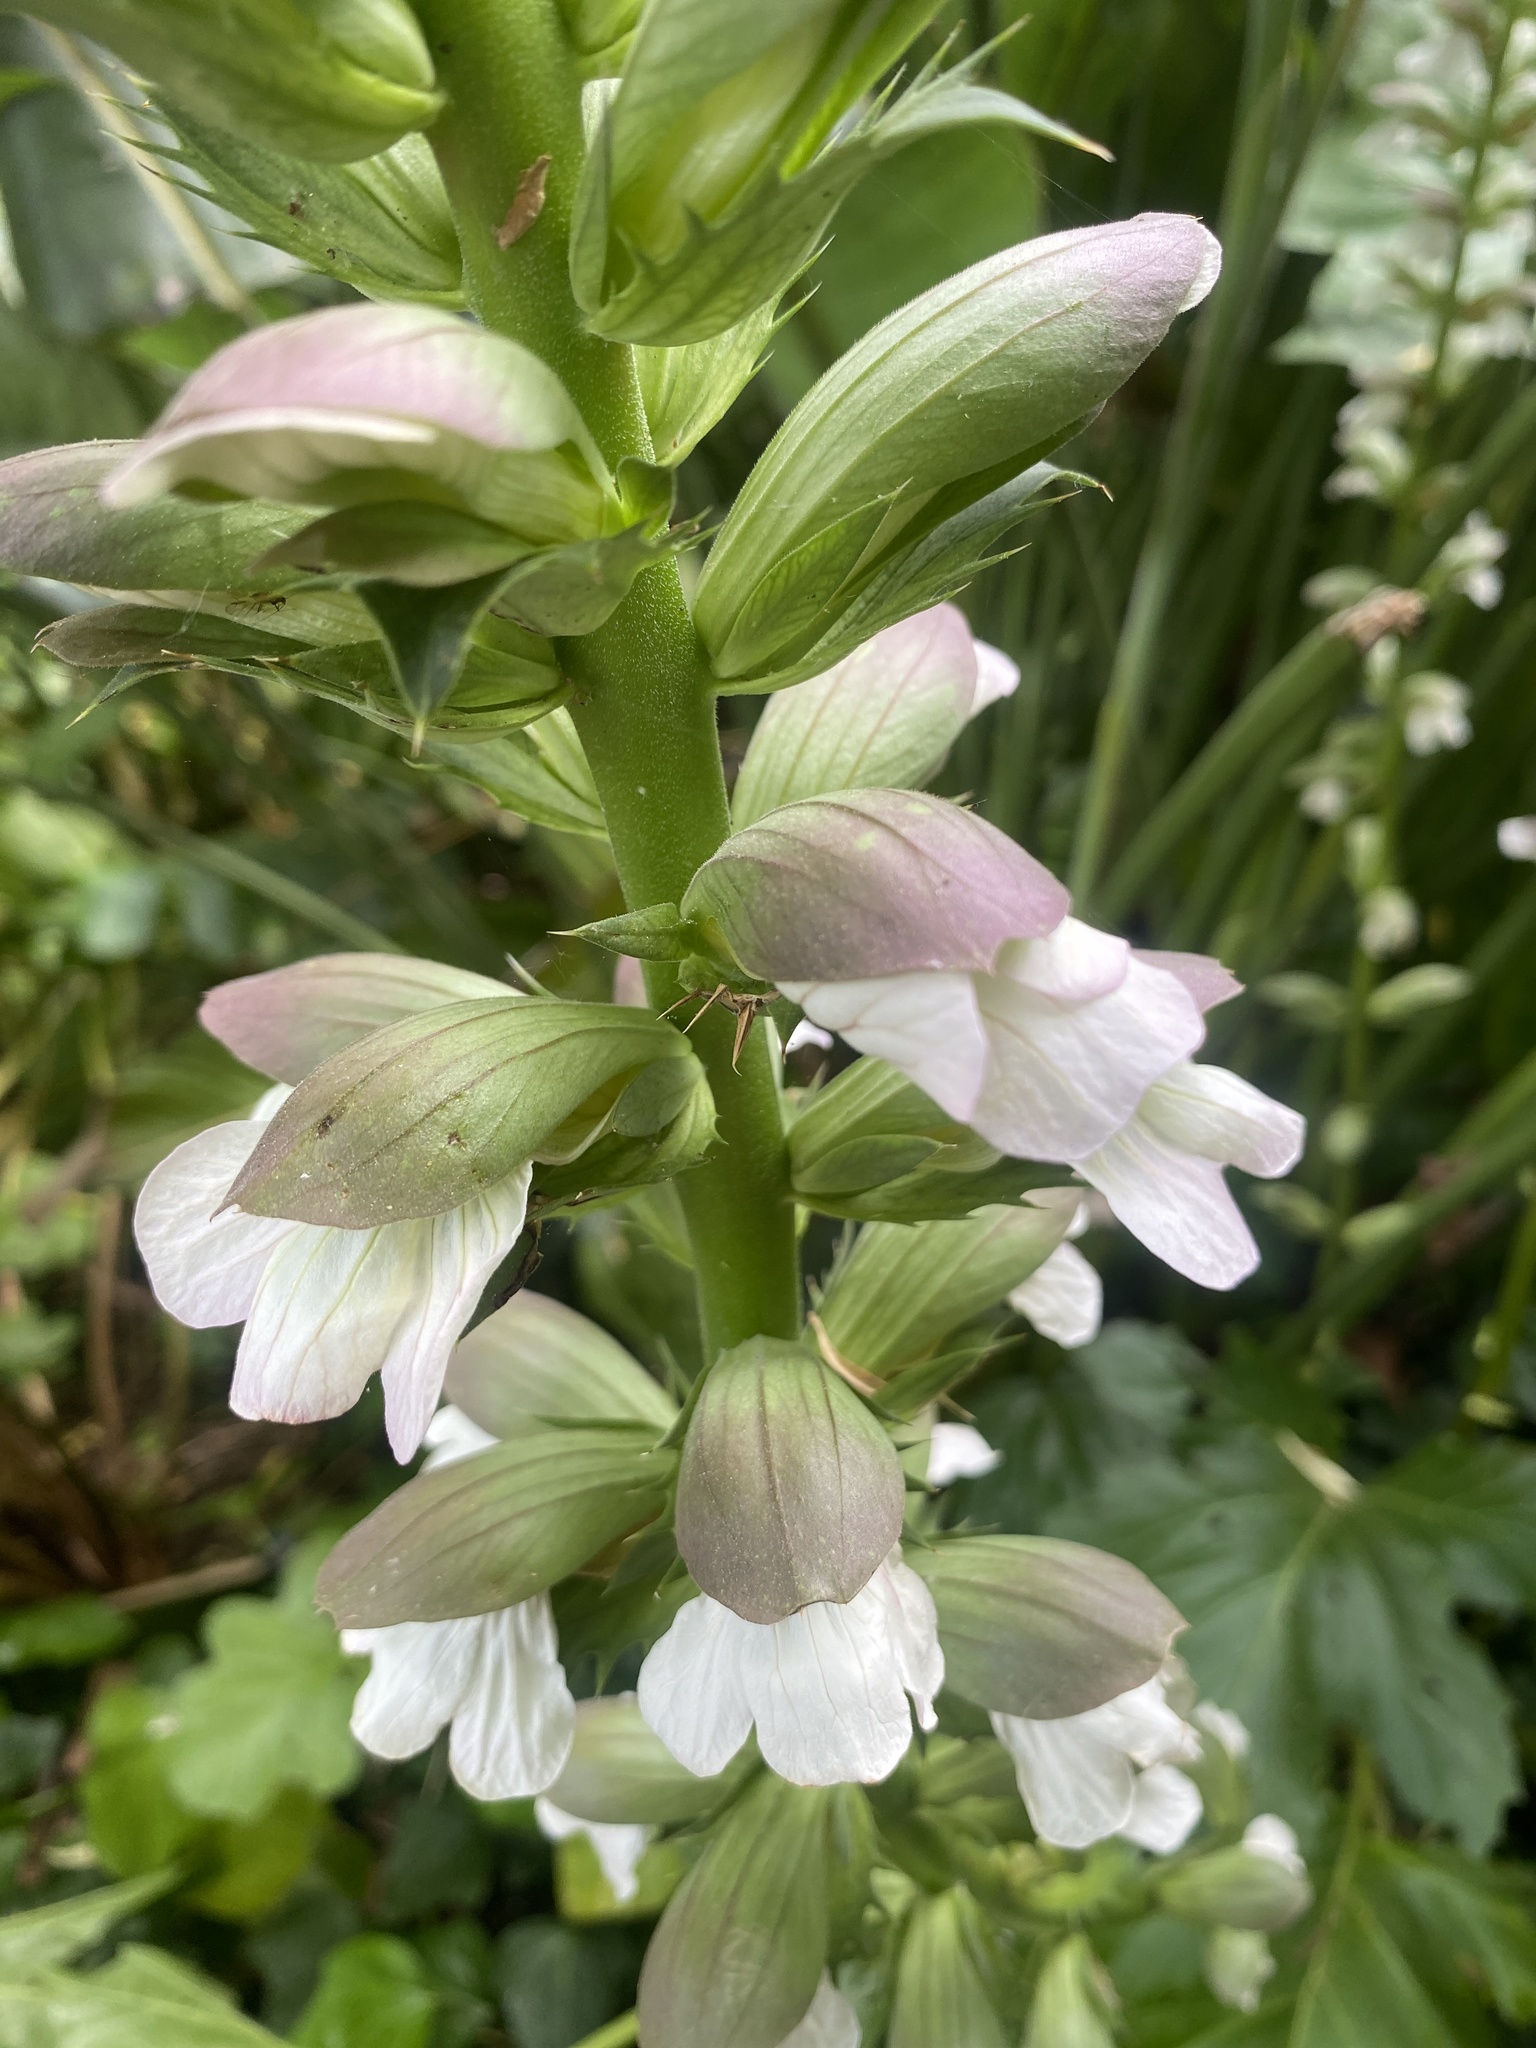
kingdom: Plantae
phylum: Tracheophyta
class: Magnoliopsida
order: Lamiales
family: Acanthaceae
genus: Acanthus
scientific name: Acanthus mollis
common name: Bear's-breech
